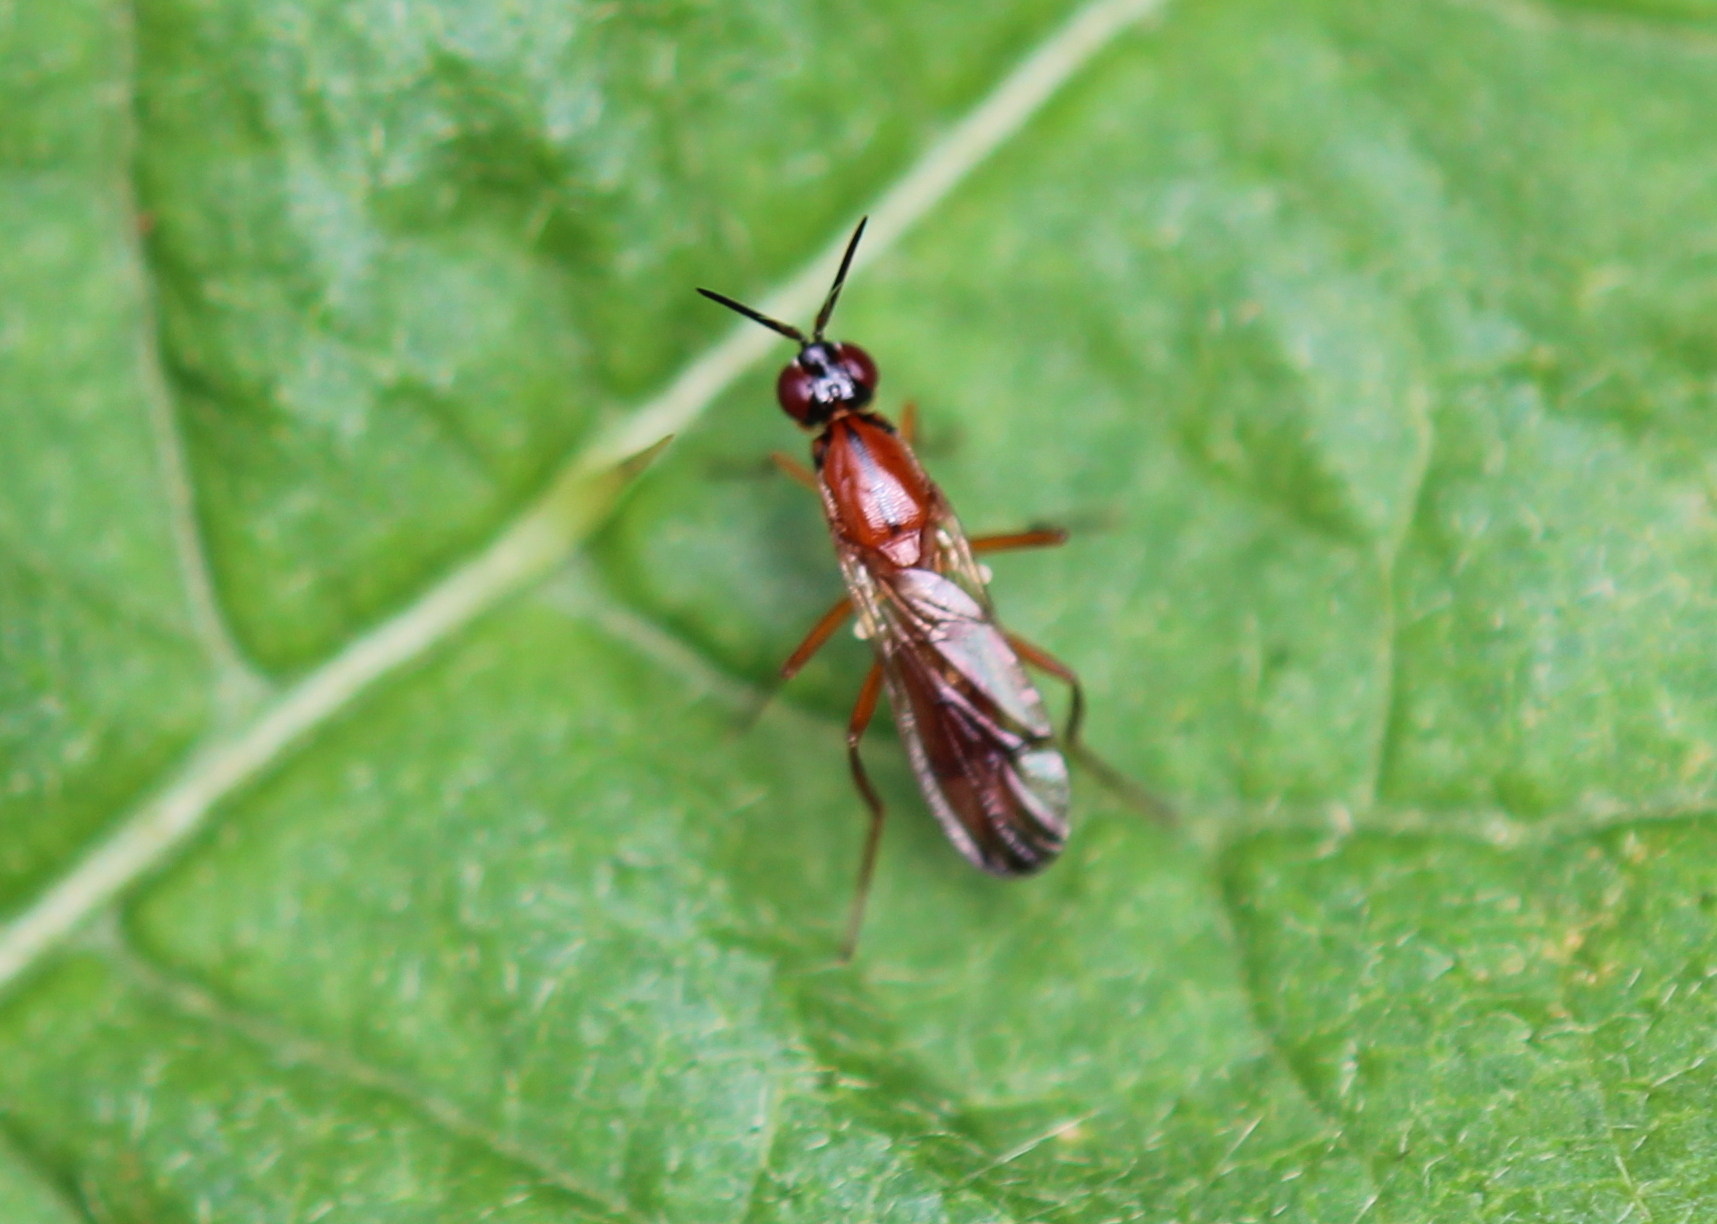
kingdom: Animalia
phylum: Arthropoda
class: Insecta
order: Diptera
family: Psilidae
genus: Loxocera
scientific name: Loxocera cylindrica
